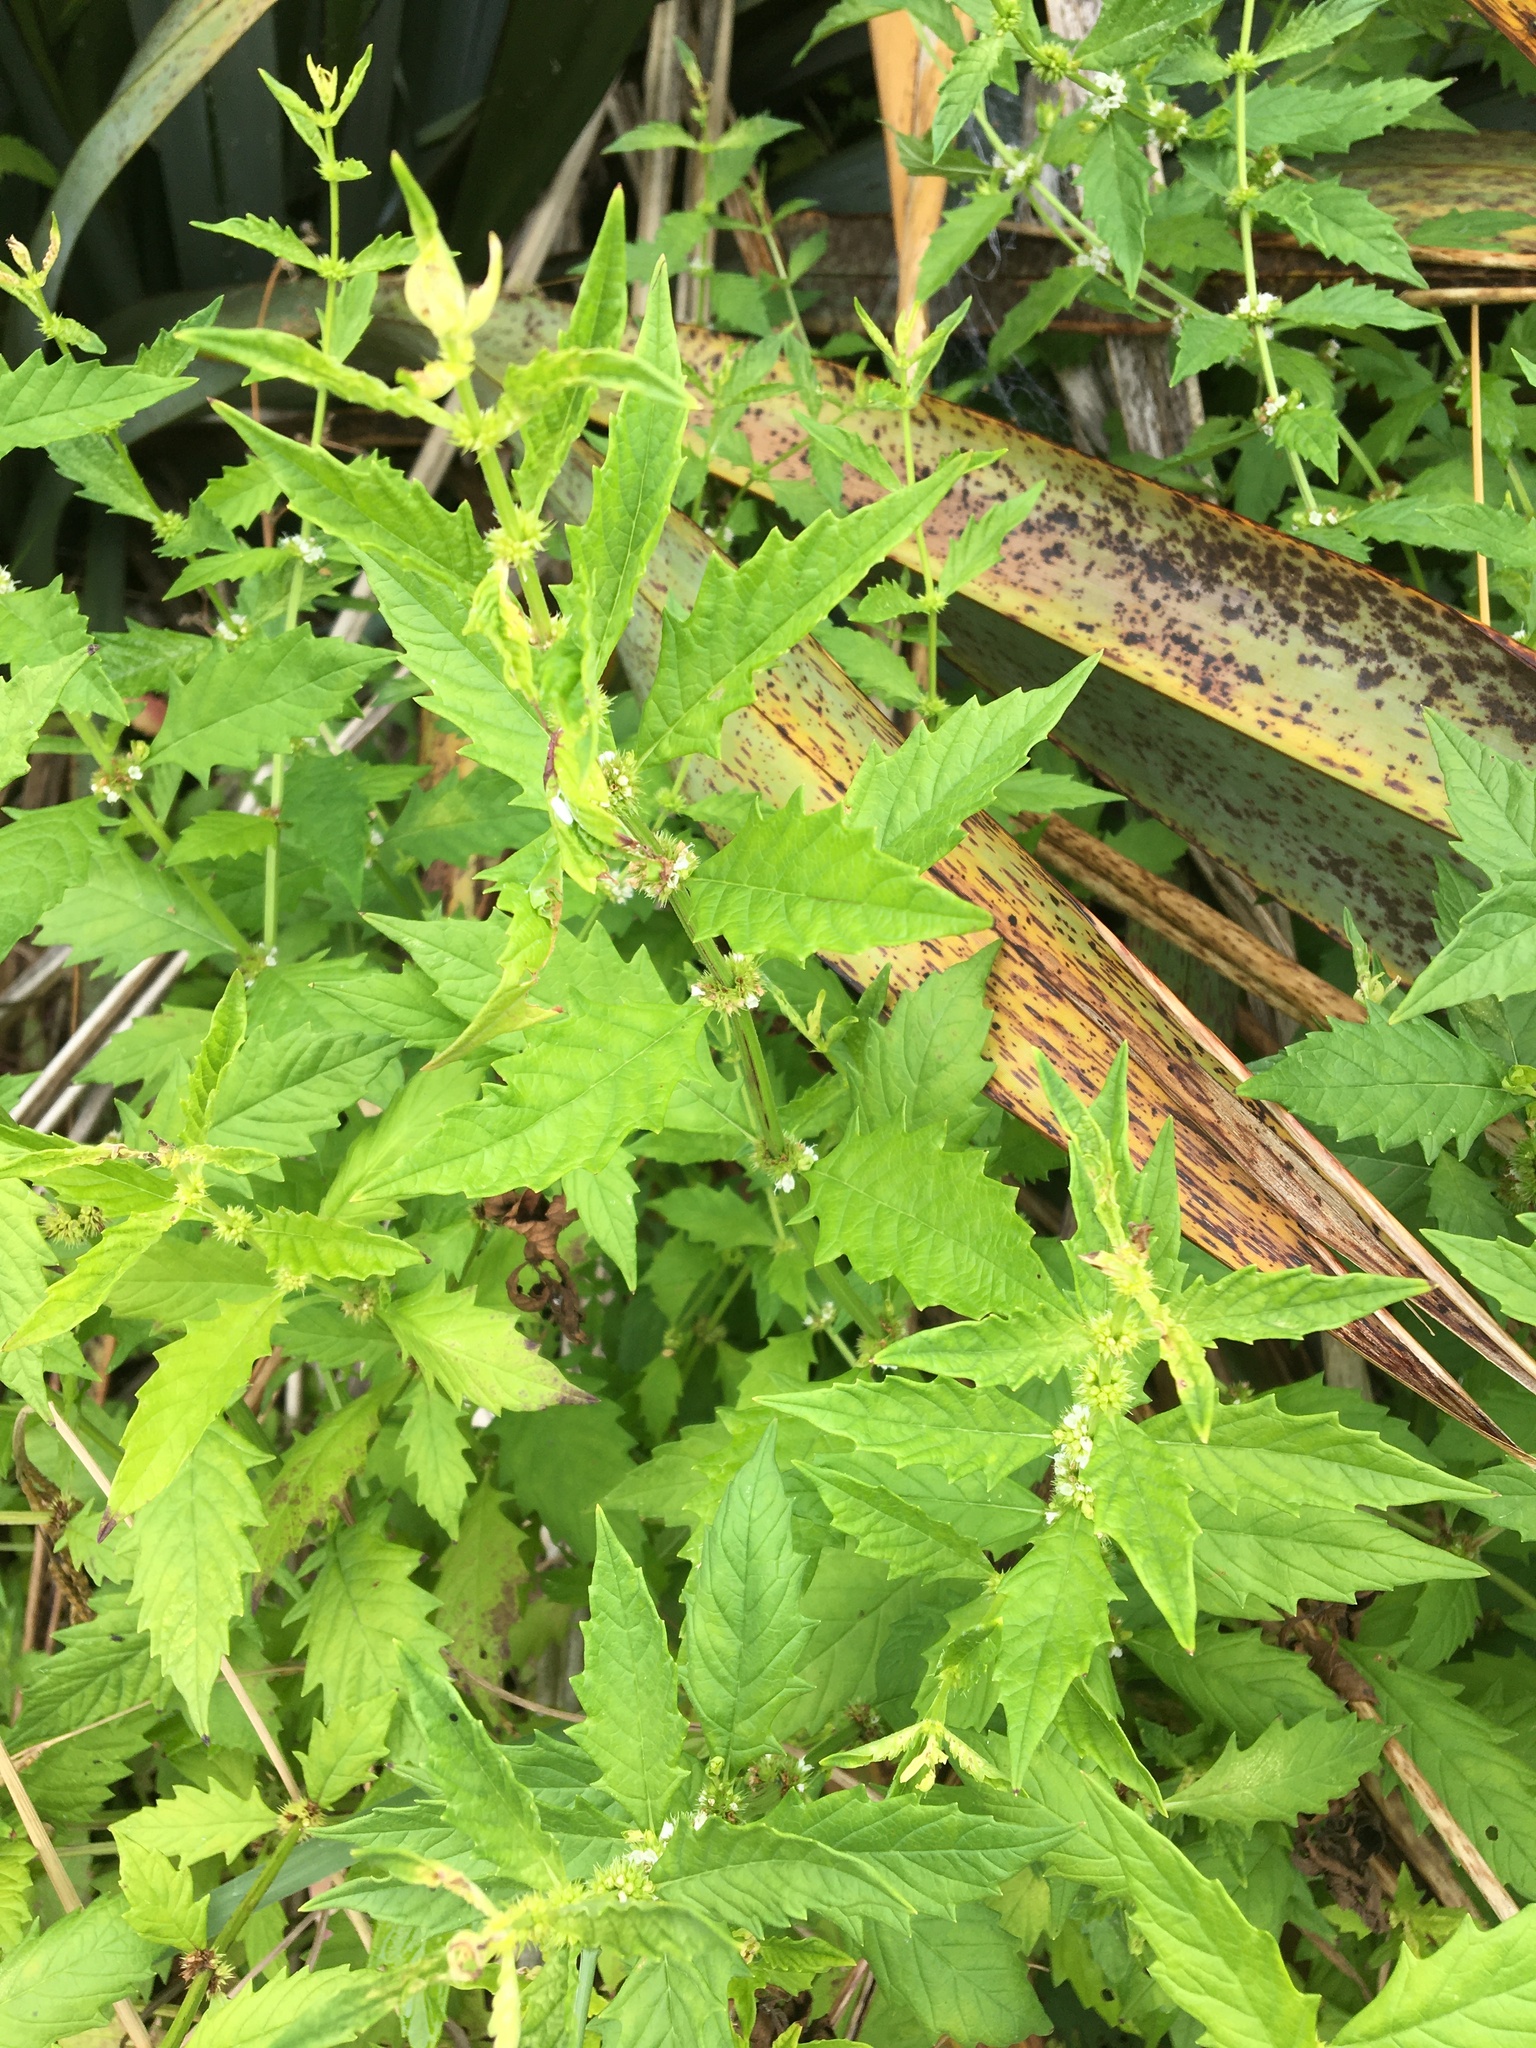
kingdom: Plantae
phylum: Tracheophyta
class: Magnoliopsida
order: Lamiales
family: Lamiaceae
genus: Lycopus
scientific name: Lycopus europaeus
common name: European bugleweed
